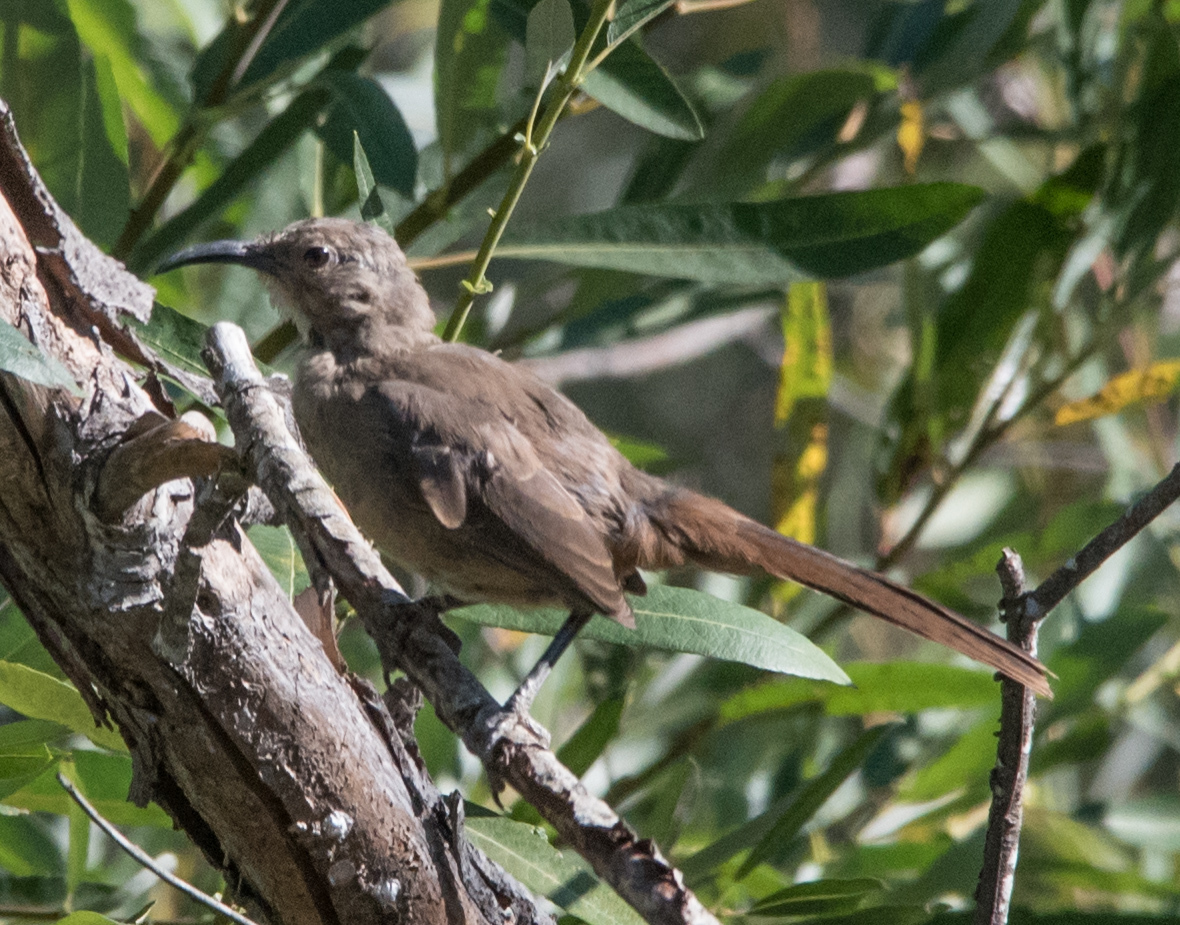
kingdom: Animalia
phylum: Chordata
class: Aves
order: Passeriformes
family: Mimidae
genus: Toxostoma
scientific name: Toxostoma redivivum
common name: California thrasher
